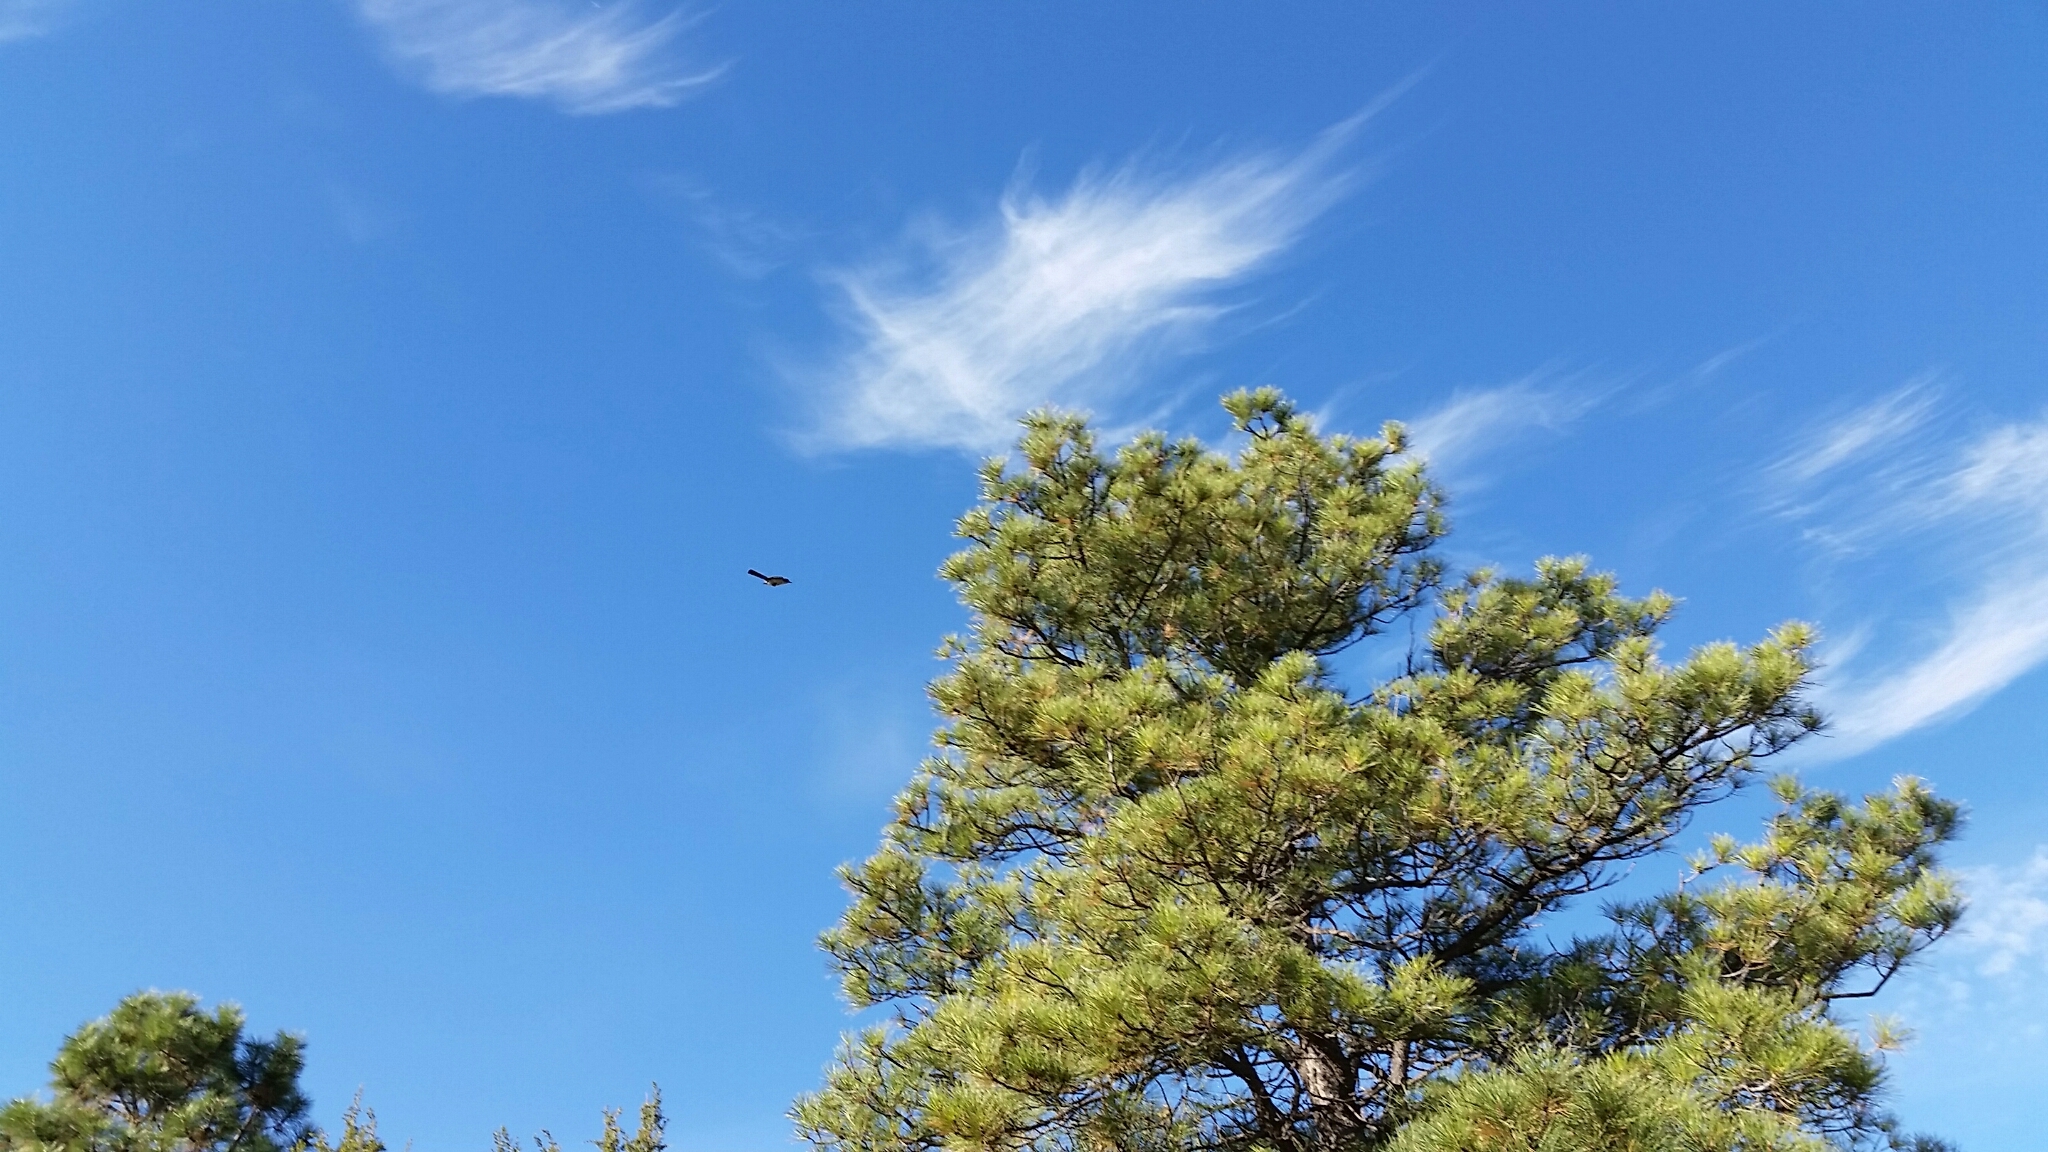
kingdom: Animalia
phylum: Chordata
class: Aves
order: Passeriformes
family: Corvidae
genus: Aphelocoma
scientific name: Aphelocoma woodhouseii
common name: Woodhouse's scrub-jay
